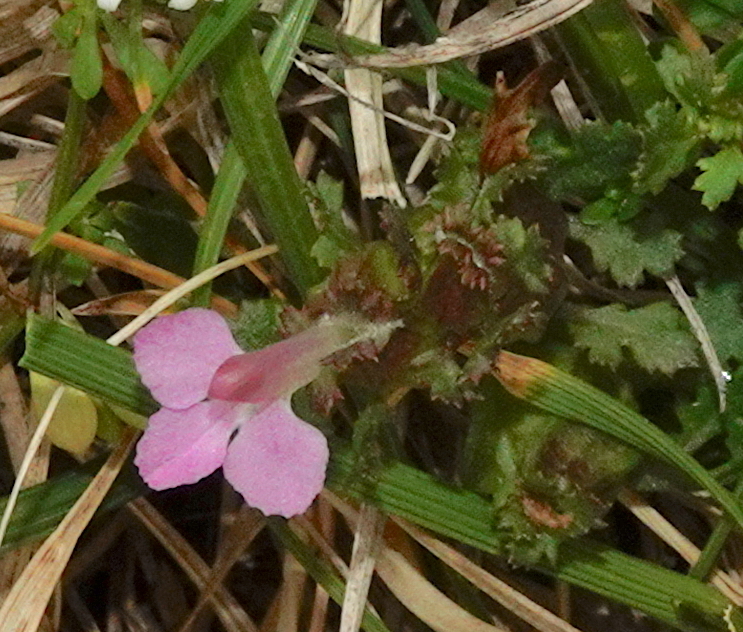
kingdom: Plantae
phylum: Tracheophyta
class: Magnoliopsida
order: Lamiales
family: Orobanchaceae
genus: Pedicularis
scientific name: Pedicularis sylvatica
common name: Lousewort
